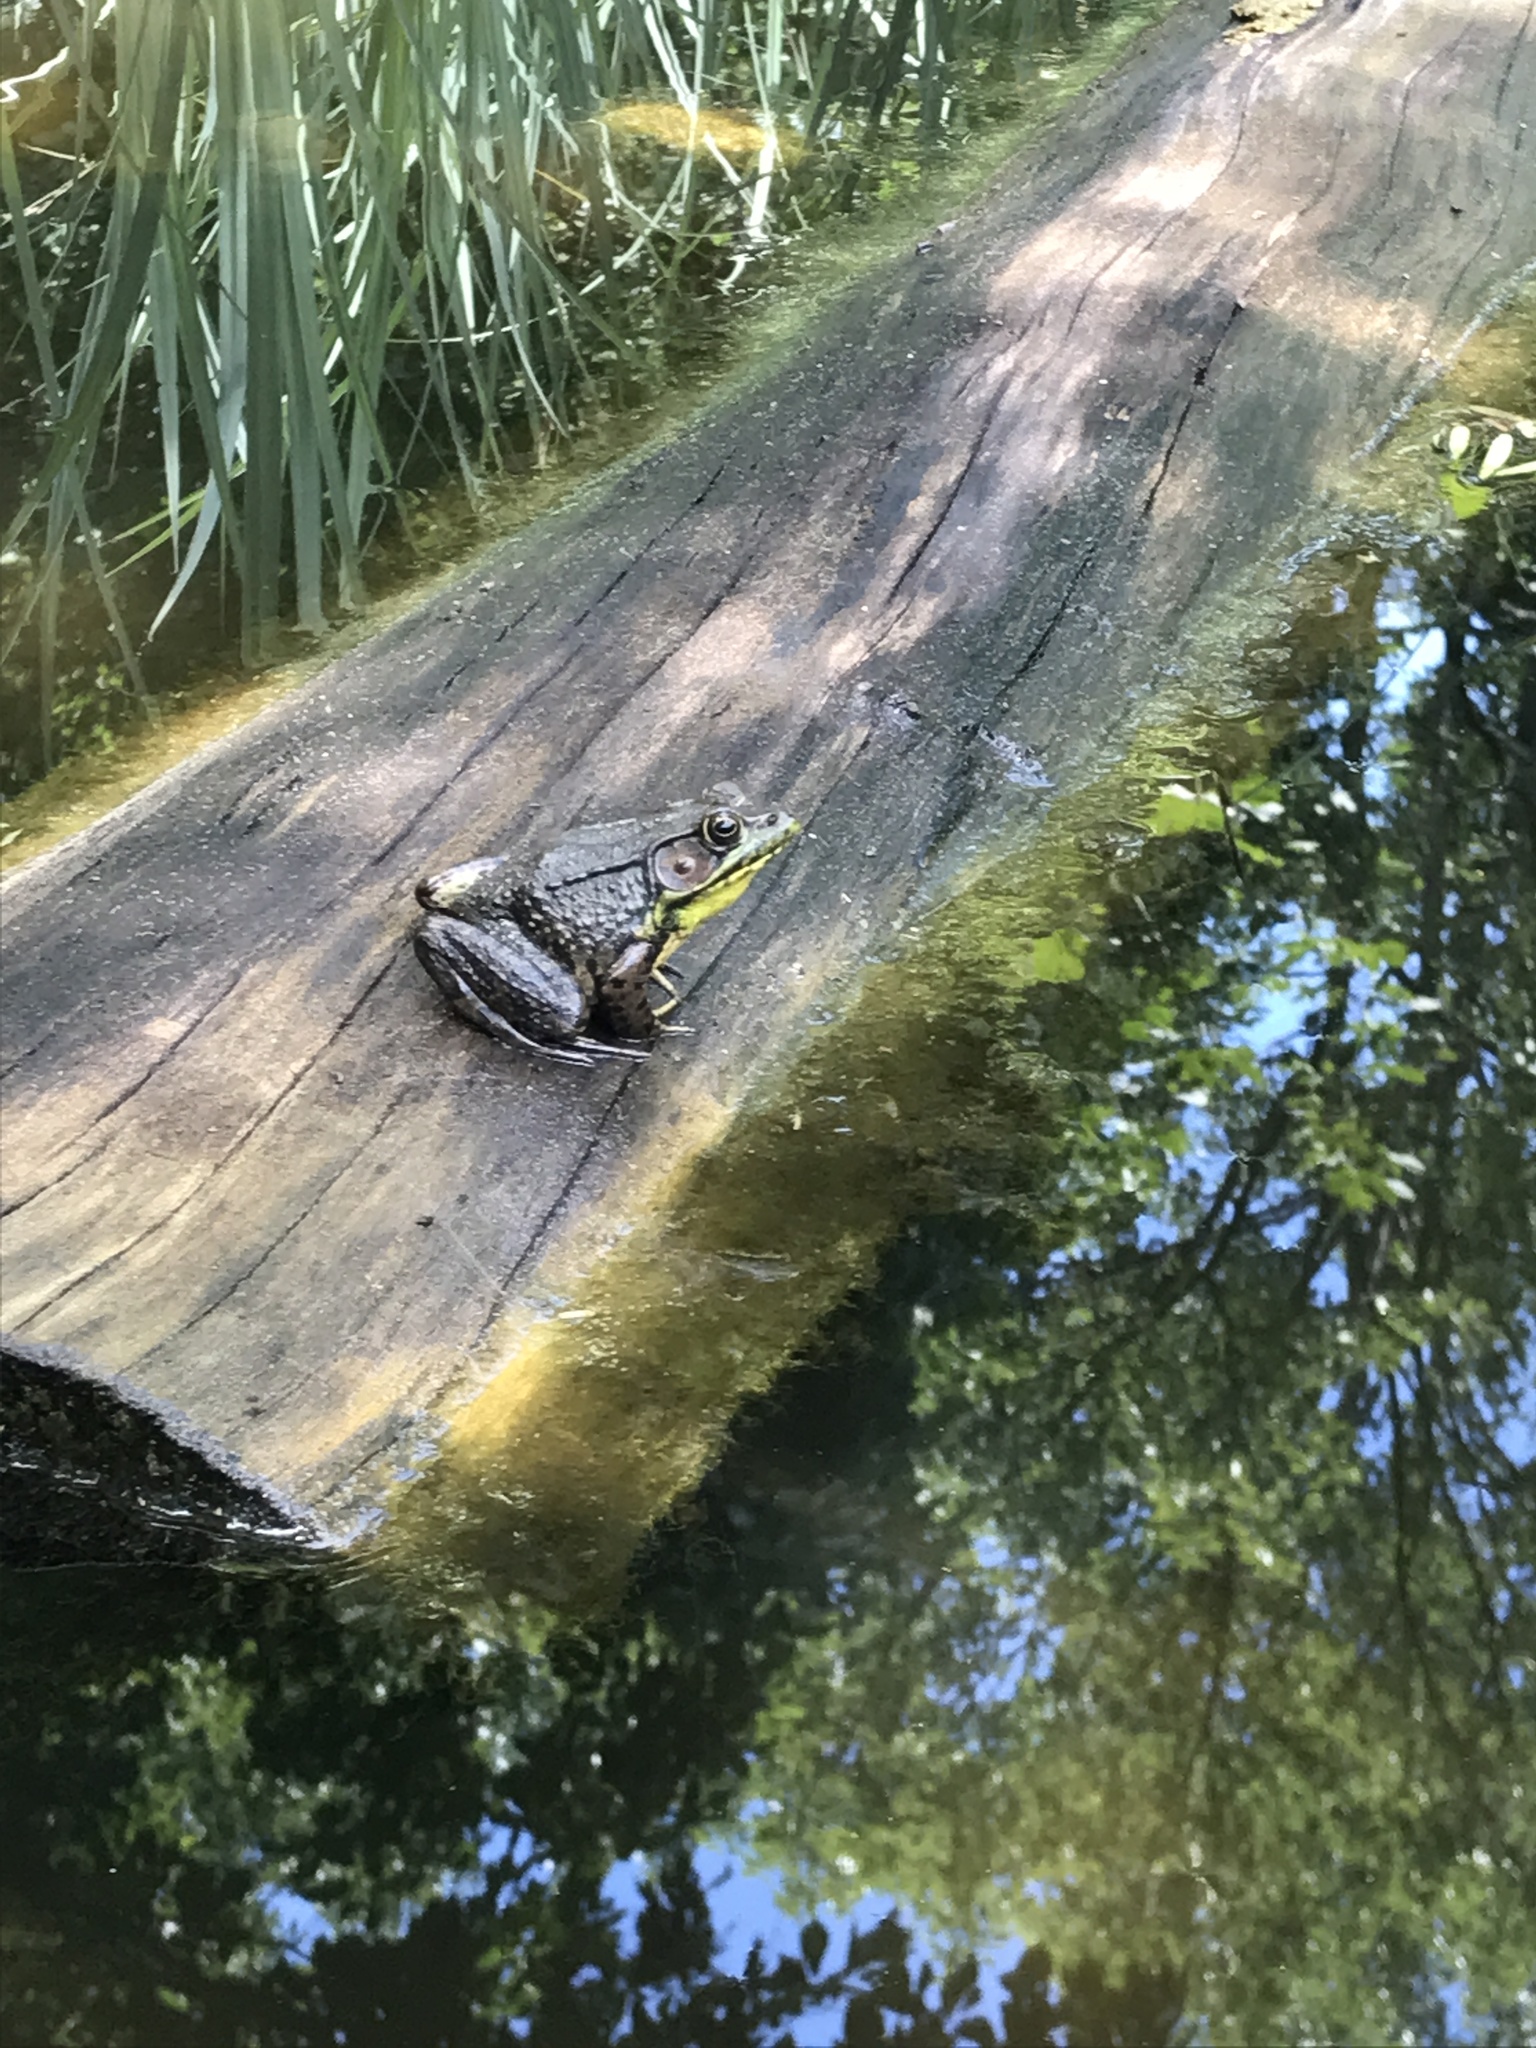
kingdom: Animalia
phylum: Chordata
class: Amphibia
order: Anura
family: Ranidae
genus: Lithobates
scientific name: Lithobates clamitans
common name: Green frog
